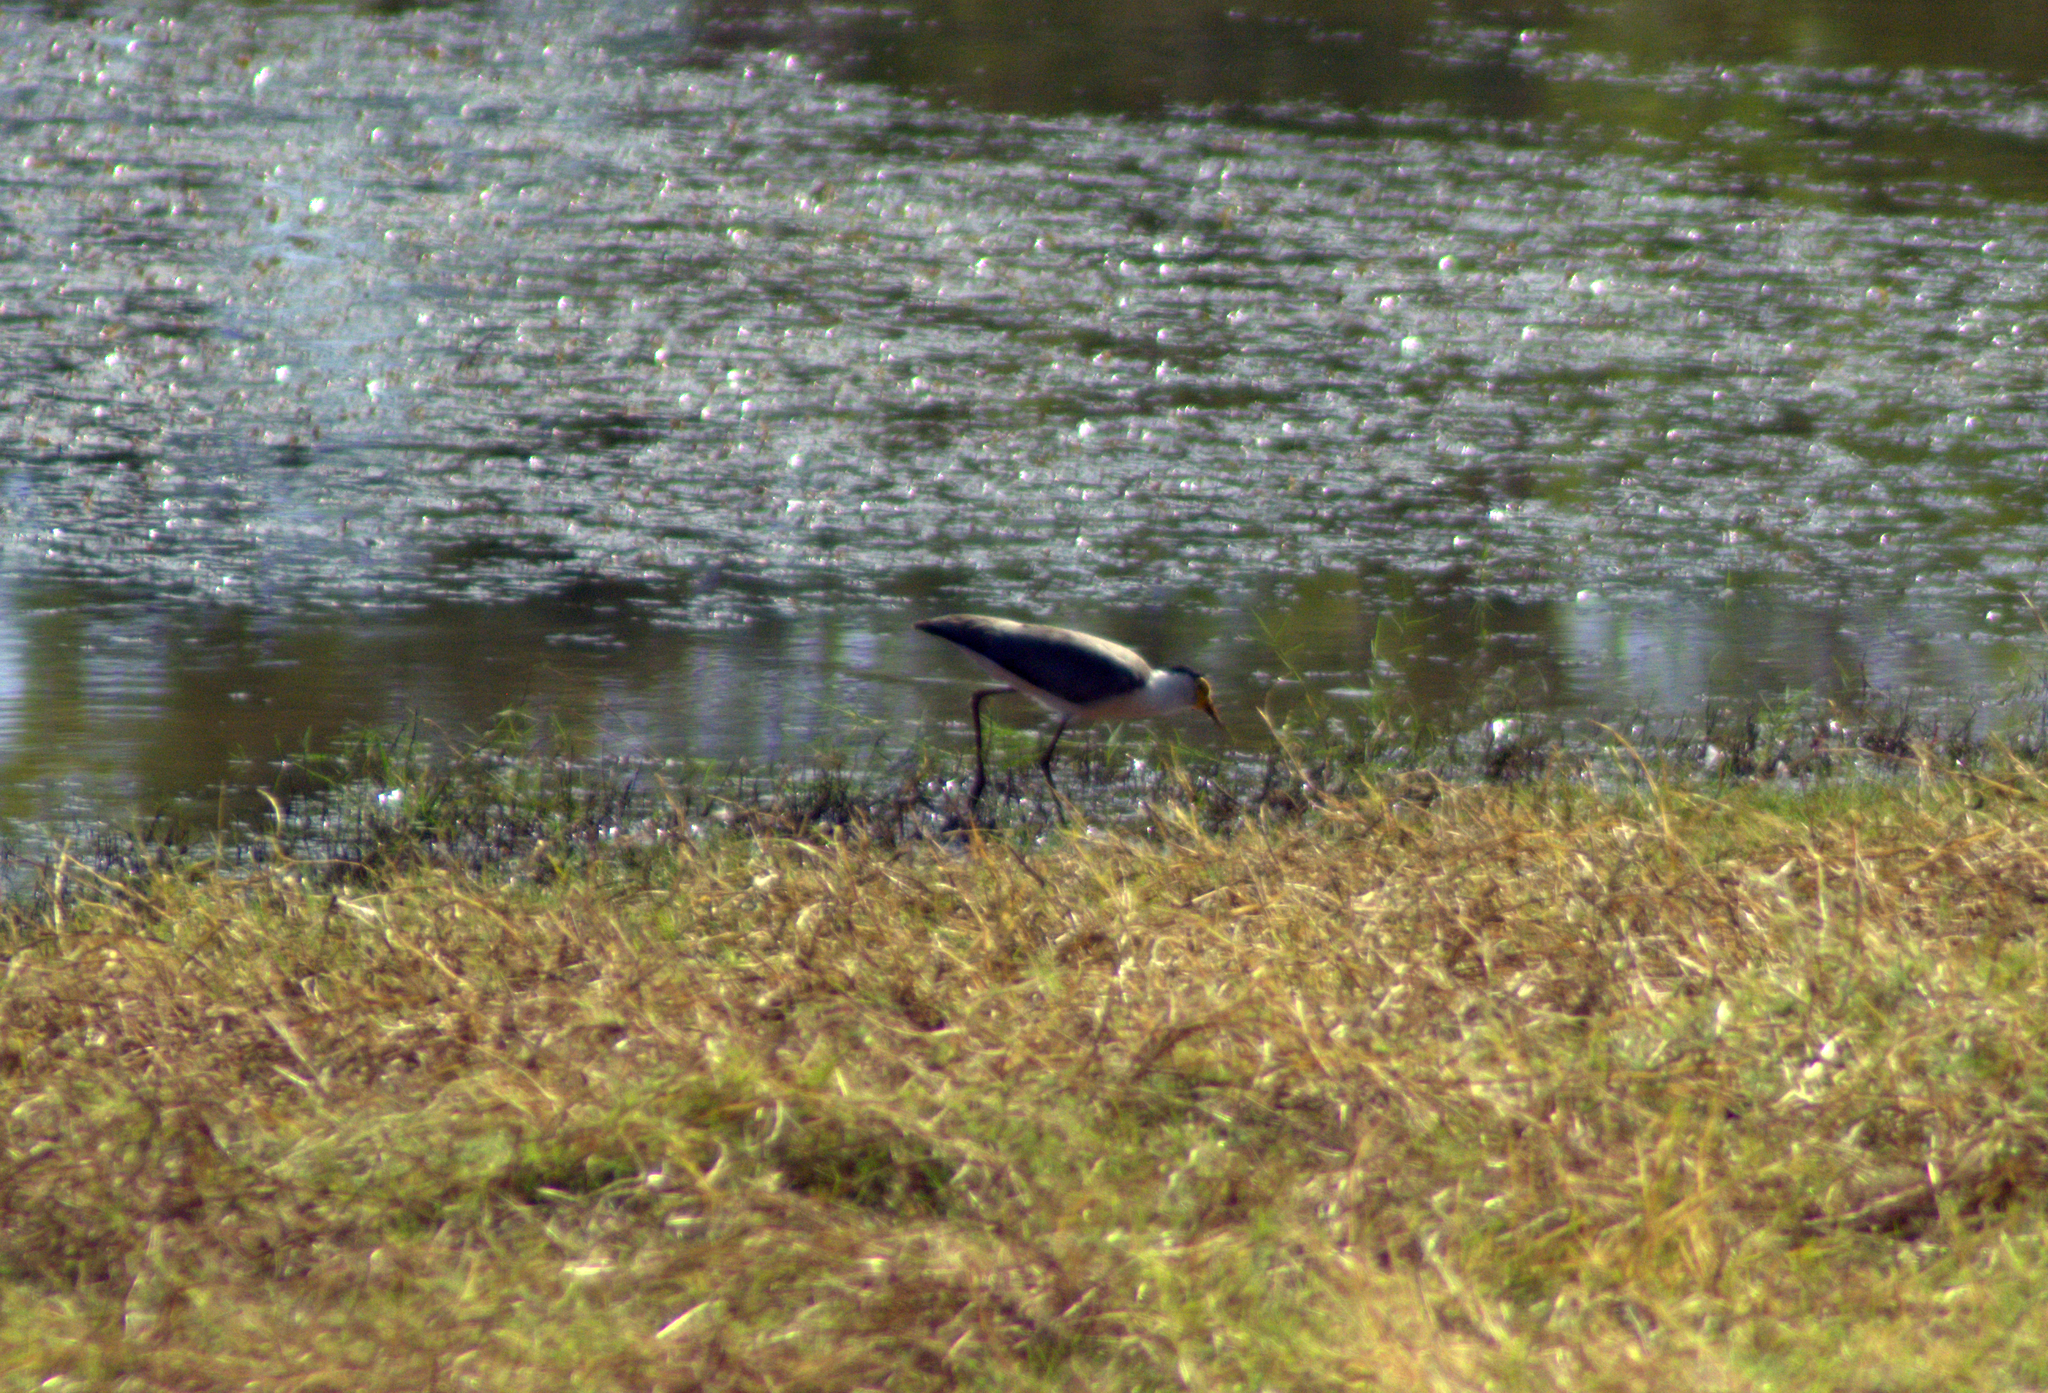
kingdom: Animalia
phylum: Chordata
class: Aves
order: Charadriiformes
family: Charadriidae
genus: Vanellus
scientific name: Vanellus miles
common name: Masked lapwing
